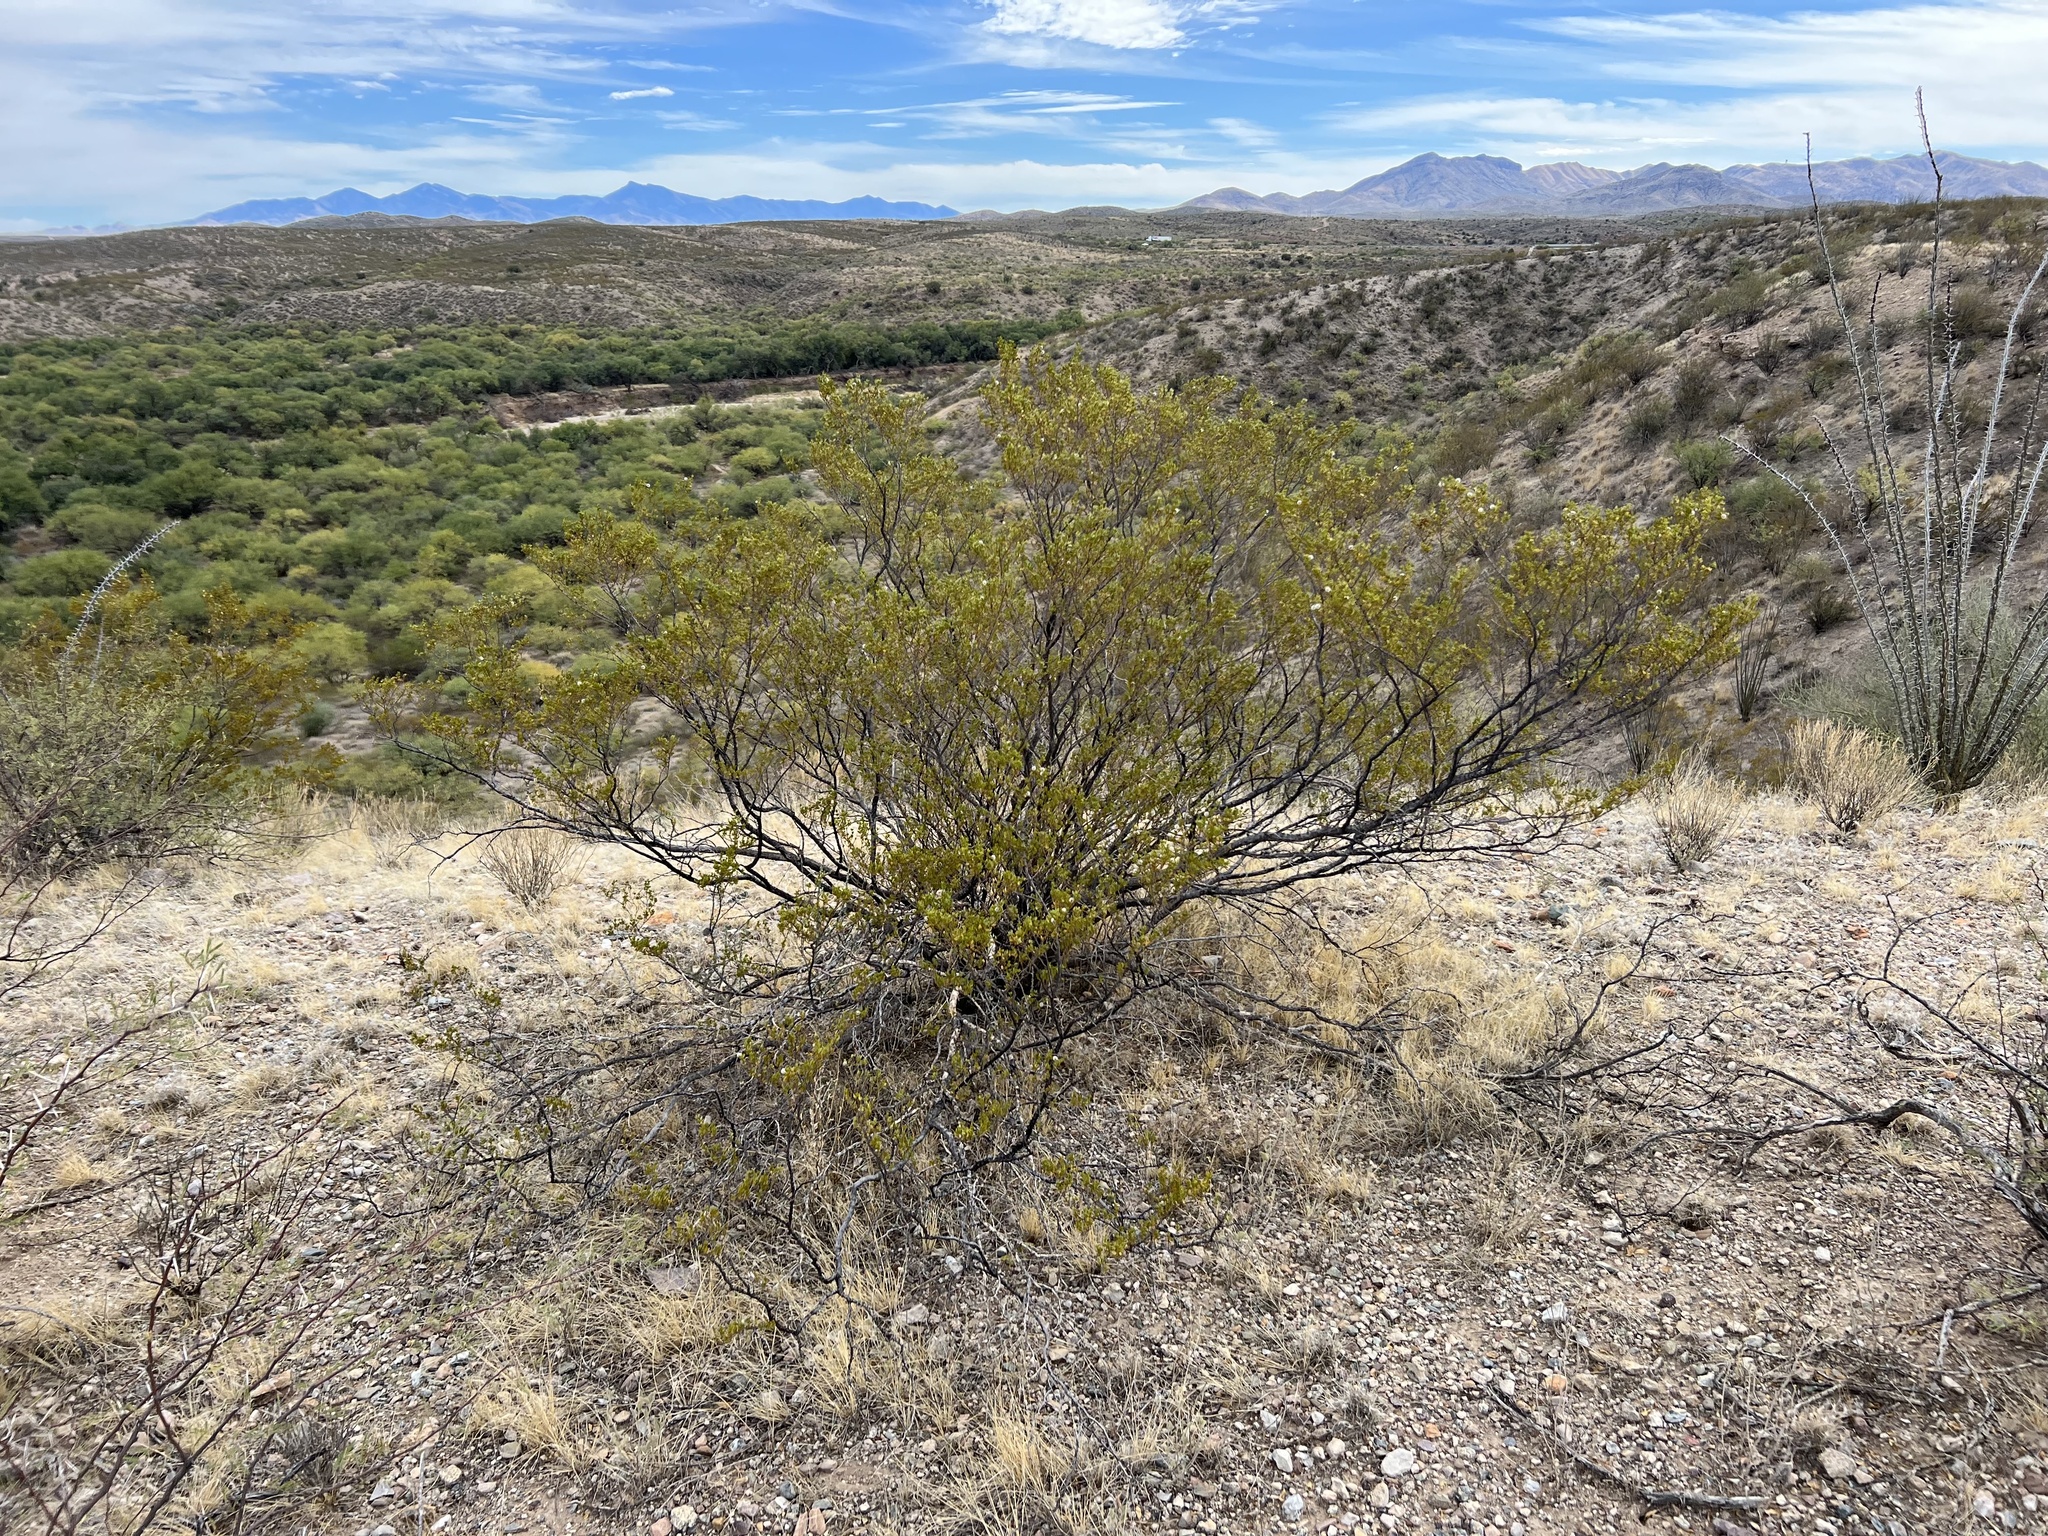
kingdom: Plantae
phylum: Tracheophyta
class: Magnoliopsida
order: Zygophyllales
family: Zygophyllaceae
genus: Larrea
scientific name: Larrea tridentata
